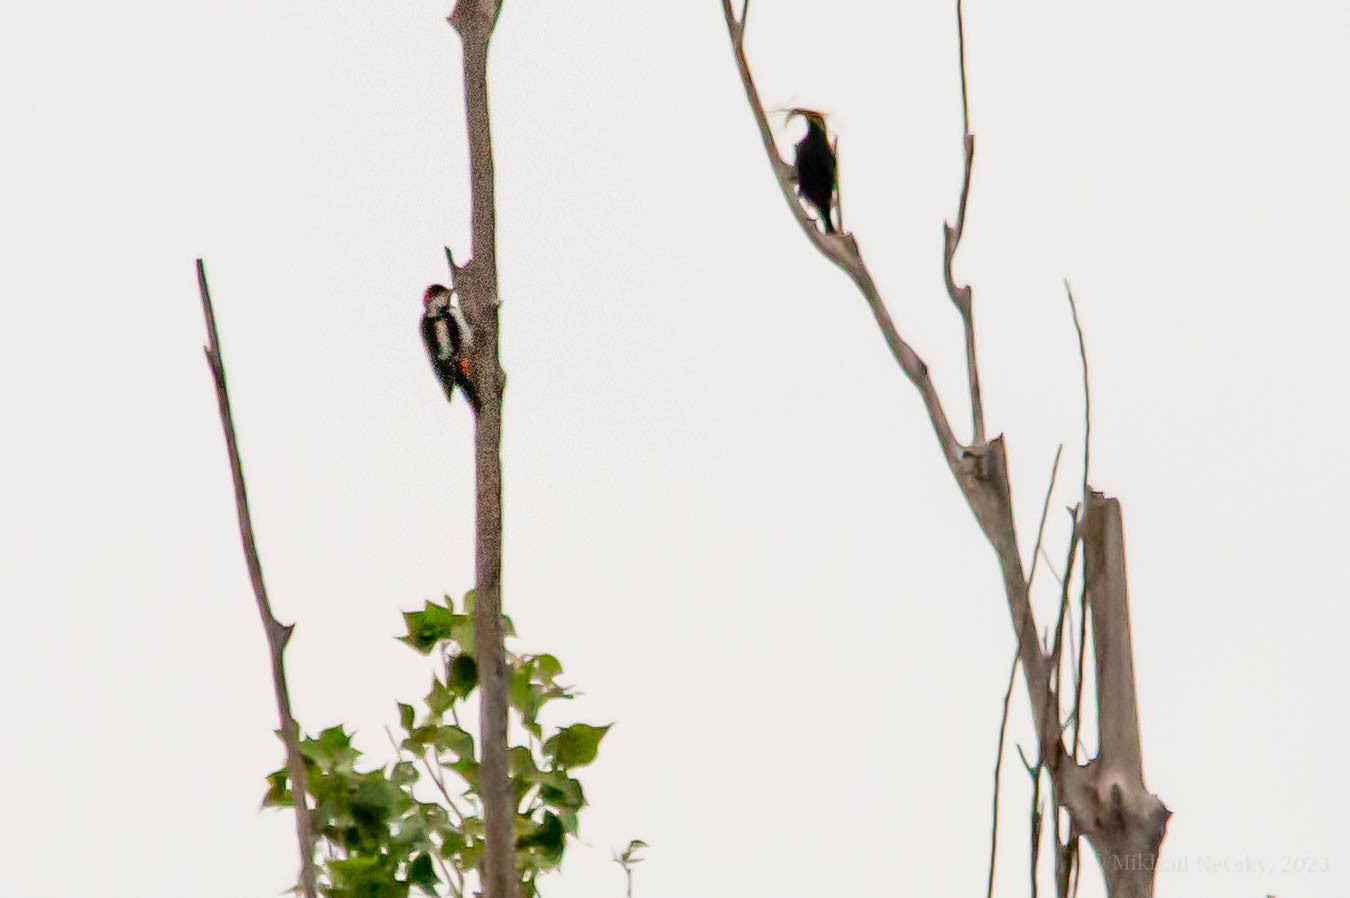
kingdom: Animalia
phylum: Chordata
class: Aves
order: Piciformes
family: Picidae
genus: Dendrocopos
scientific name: Dendrocopos syriacus
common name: Syrian woodpecker
